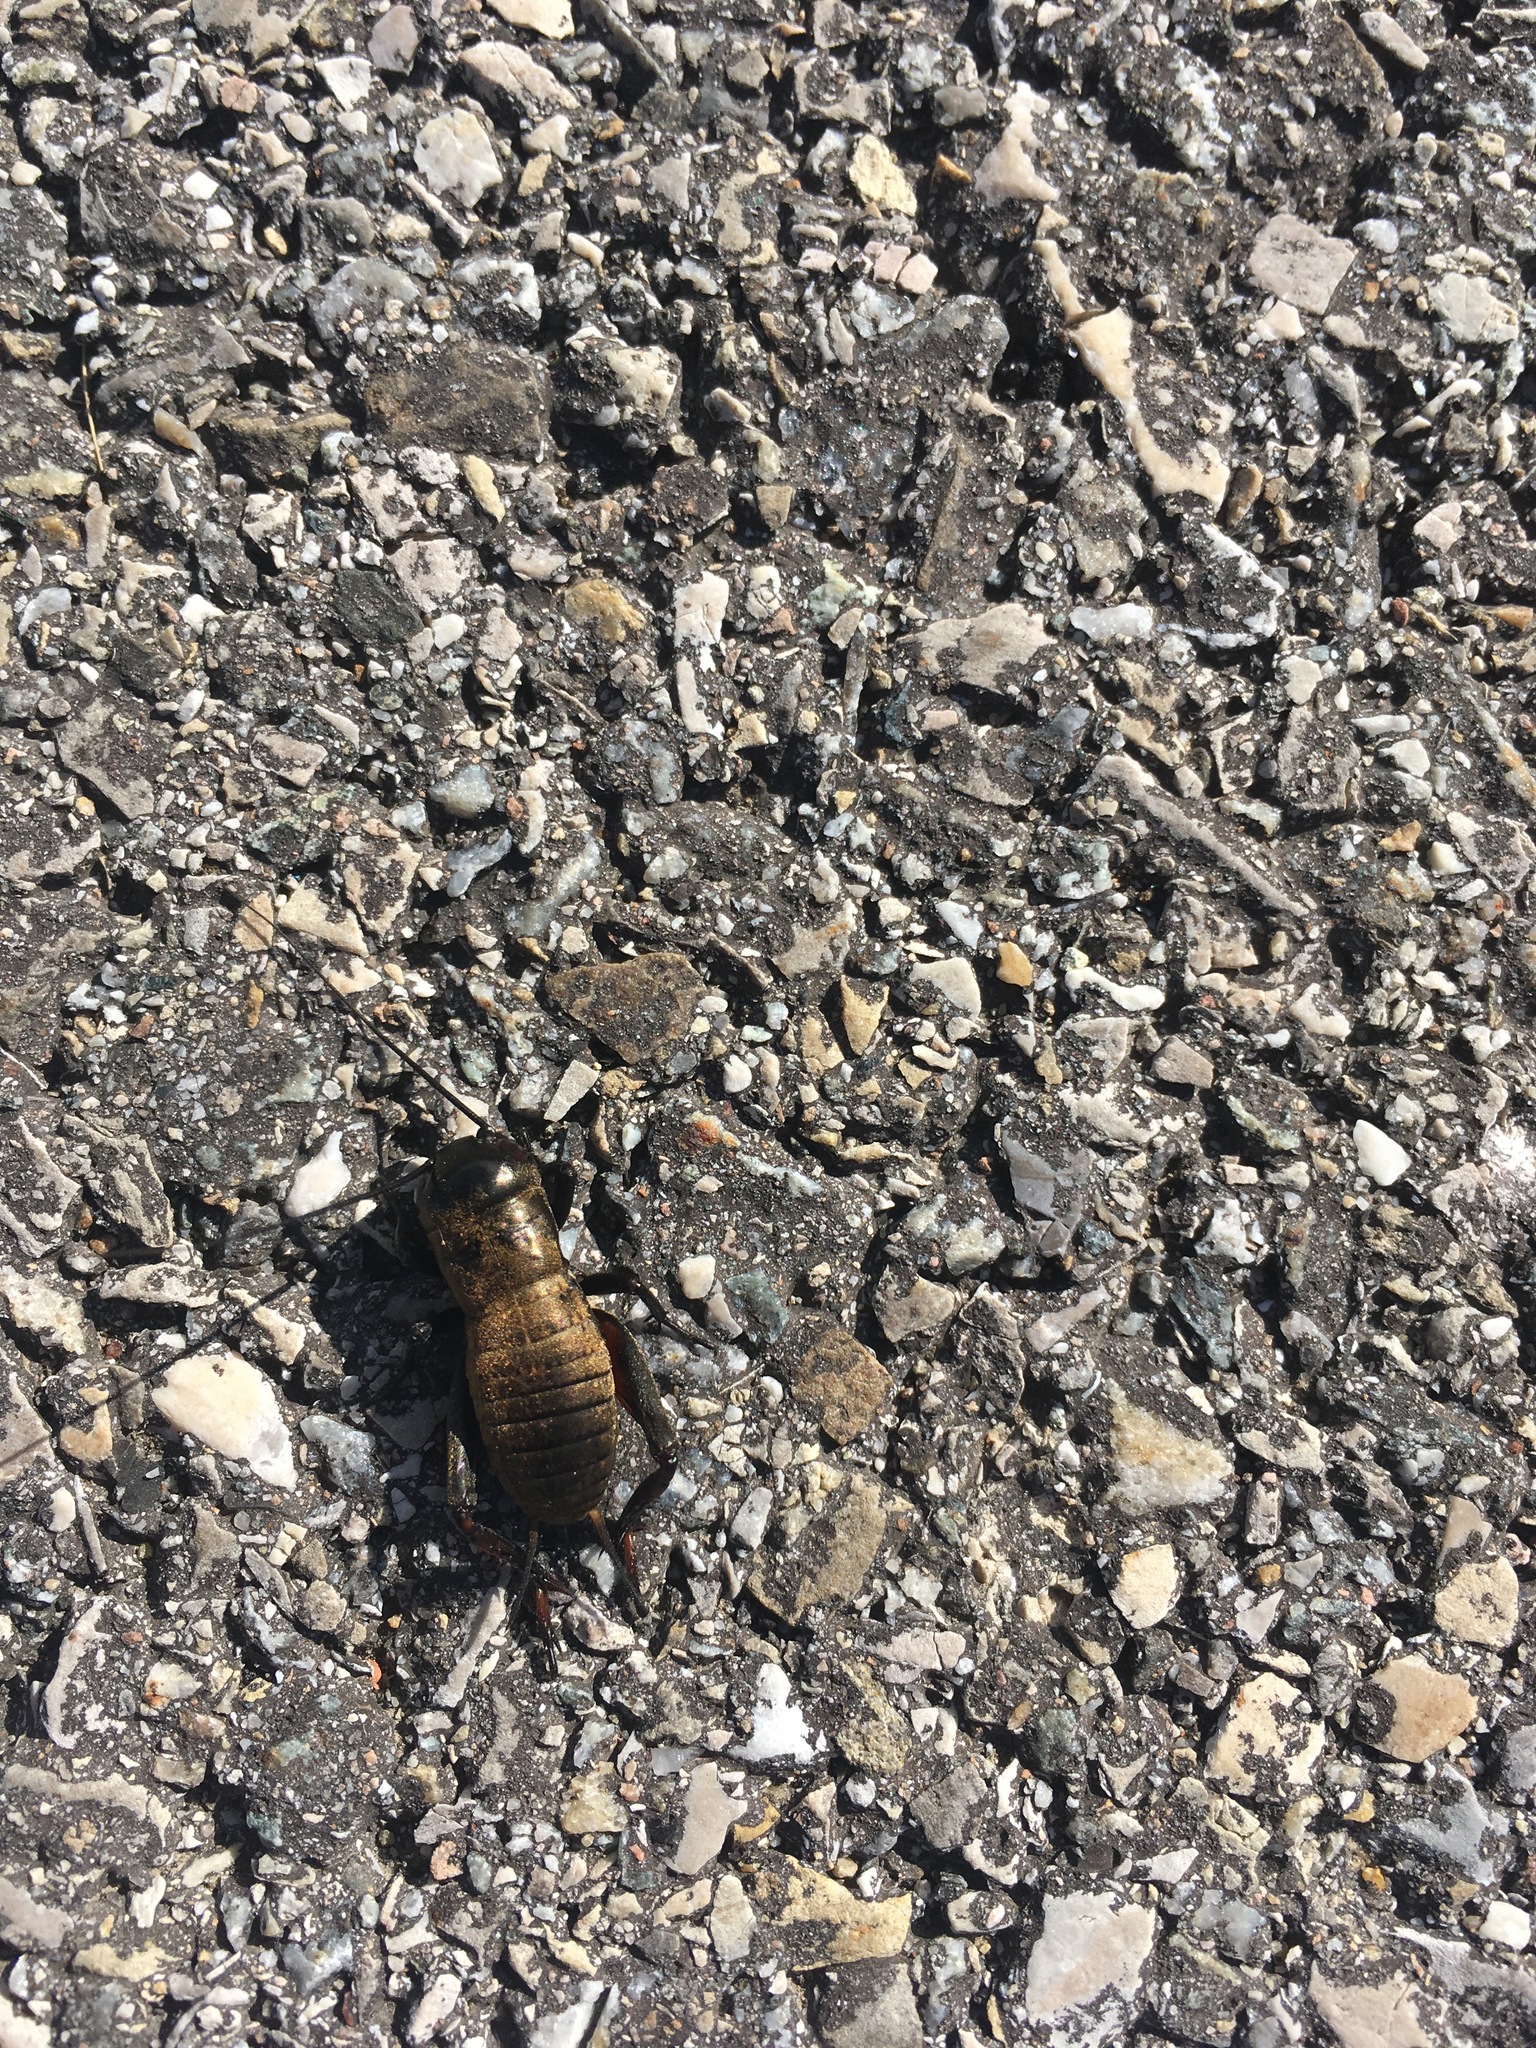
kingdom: Animalia
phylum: Arthropoda
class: Insecta
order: Orthoptera
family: Gryllidae
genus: Gryllus
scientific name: Gryllus campestris
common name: Field cricket
